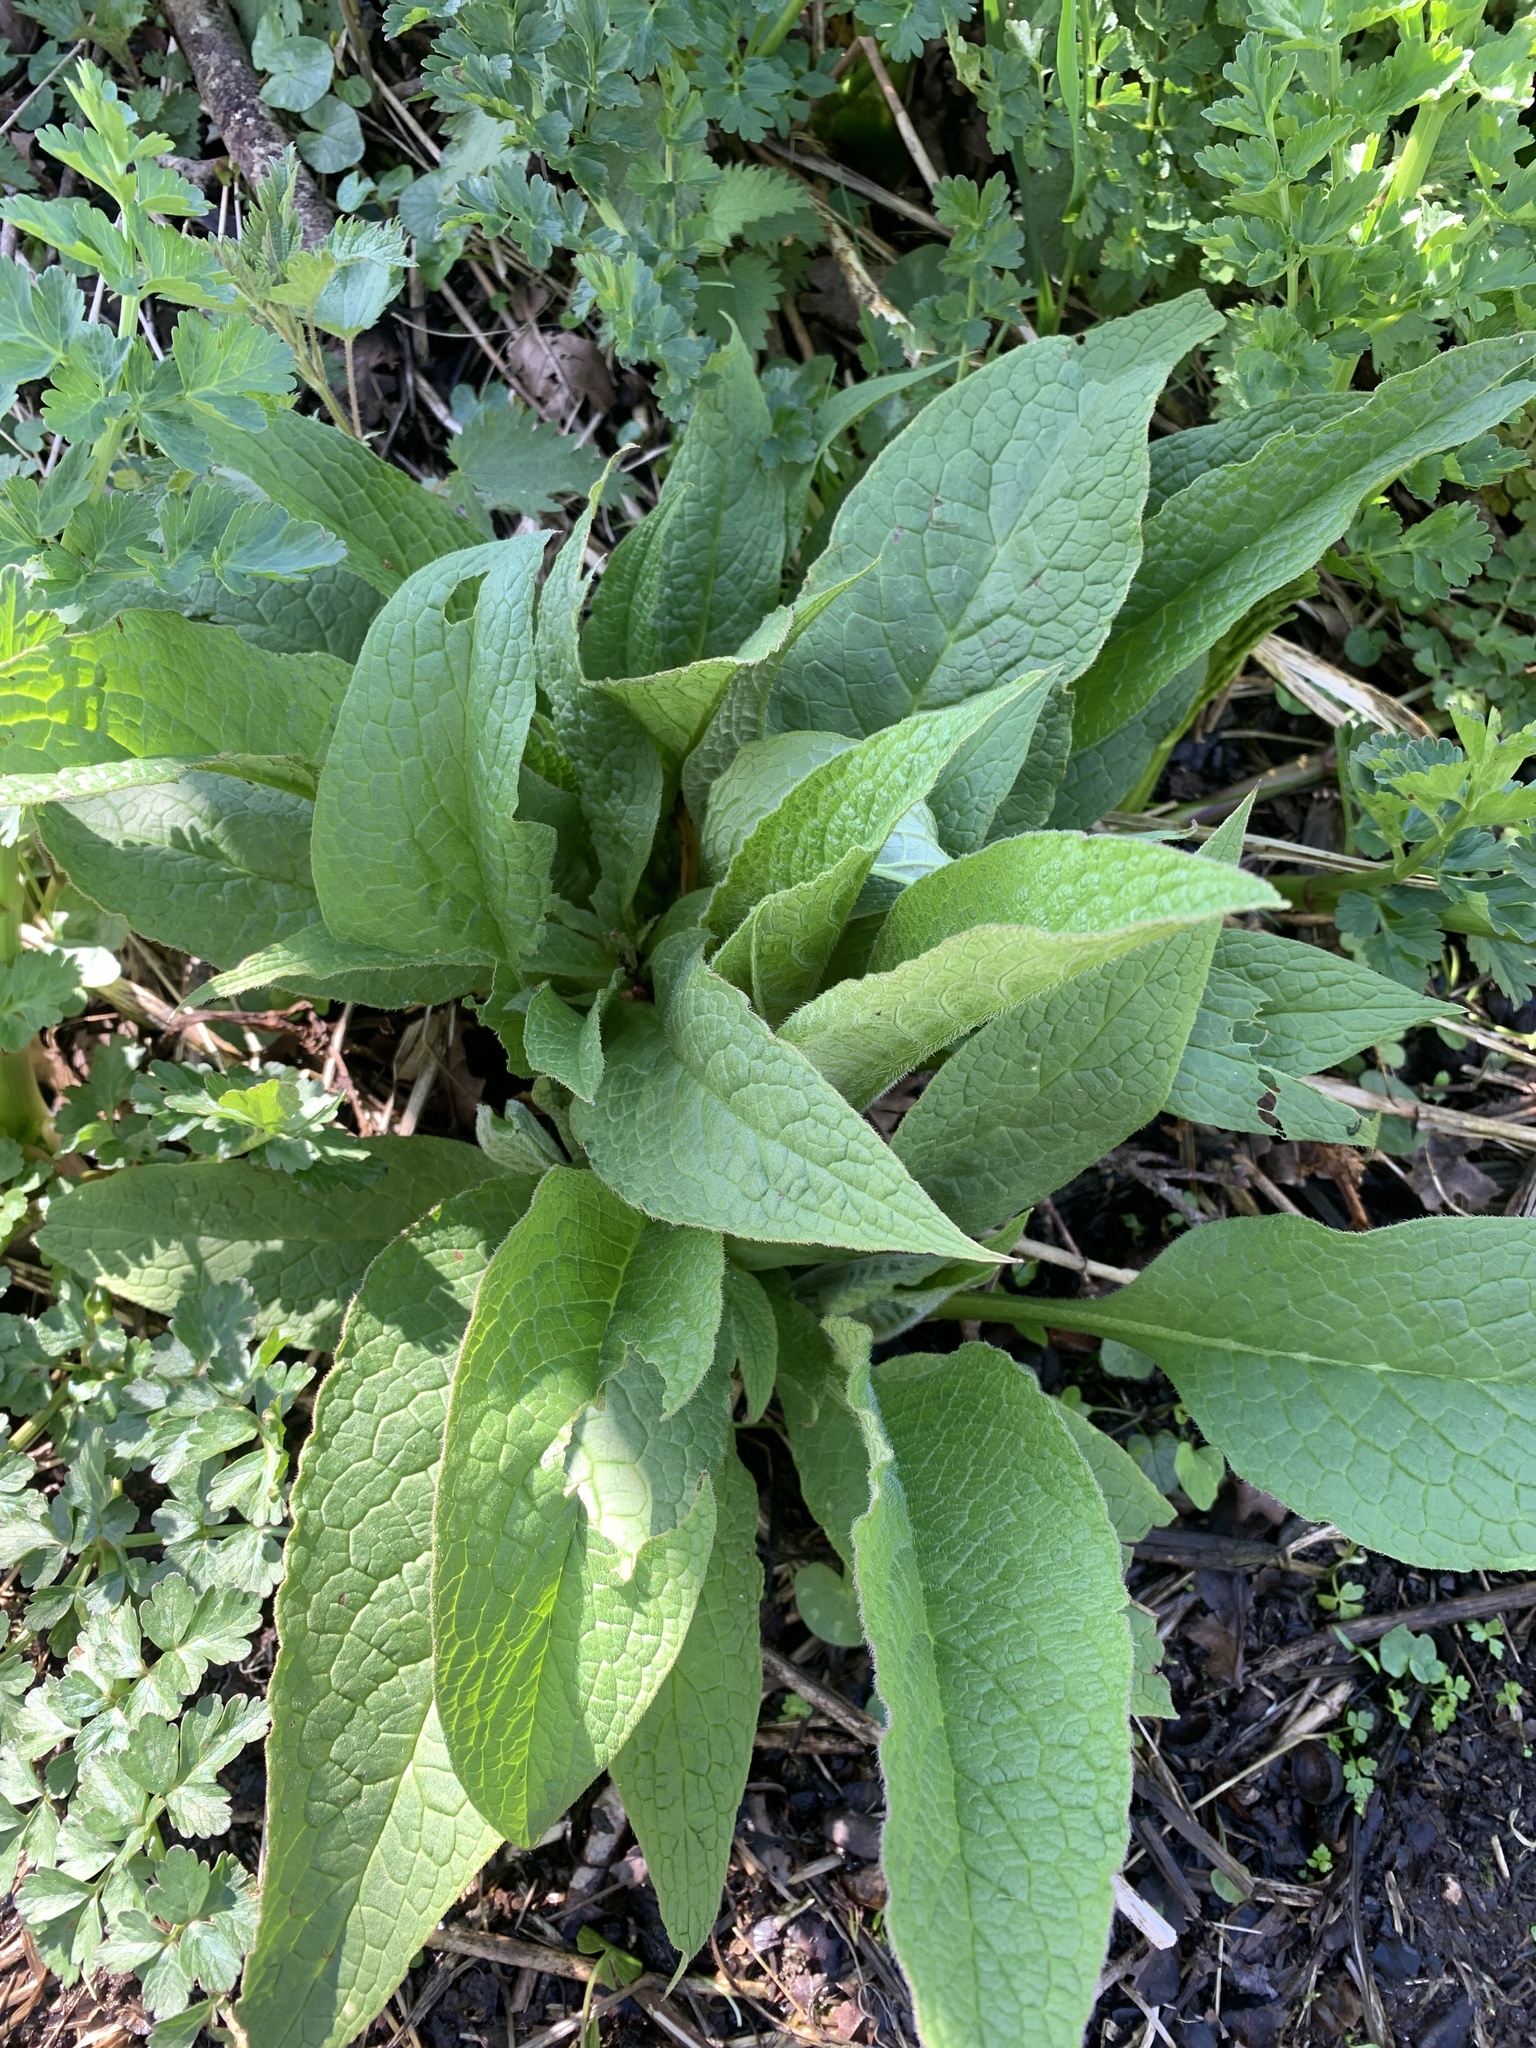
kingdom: Plantae
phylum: Tracheophyta
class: Magnoliopsida
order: Boraginales
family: Boraginaceae
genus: Symphytum
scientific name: Symphytum officinale
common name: Common comfrey
